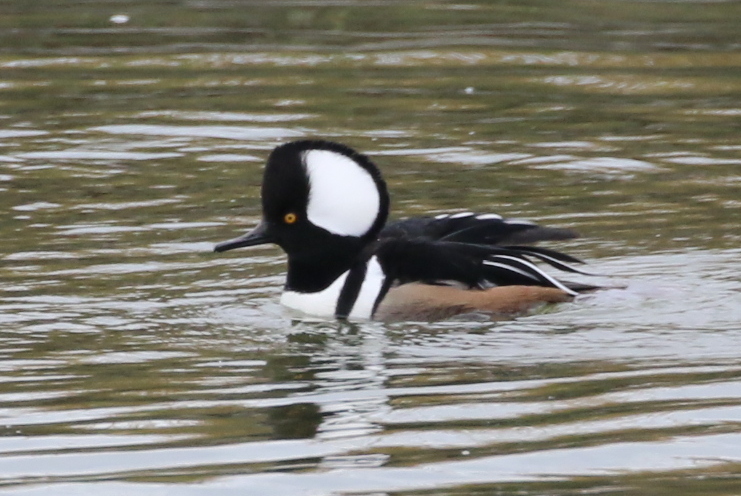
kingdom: Animalia
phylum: Chordata
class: Aves
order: Anseriformes
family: Anatidae
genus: Lophodytes
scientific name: Lophodytes cucullatus
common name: Hooded merganser
